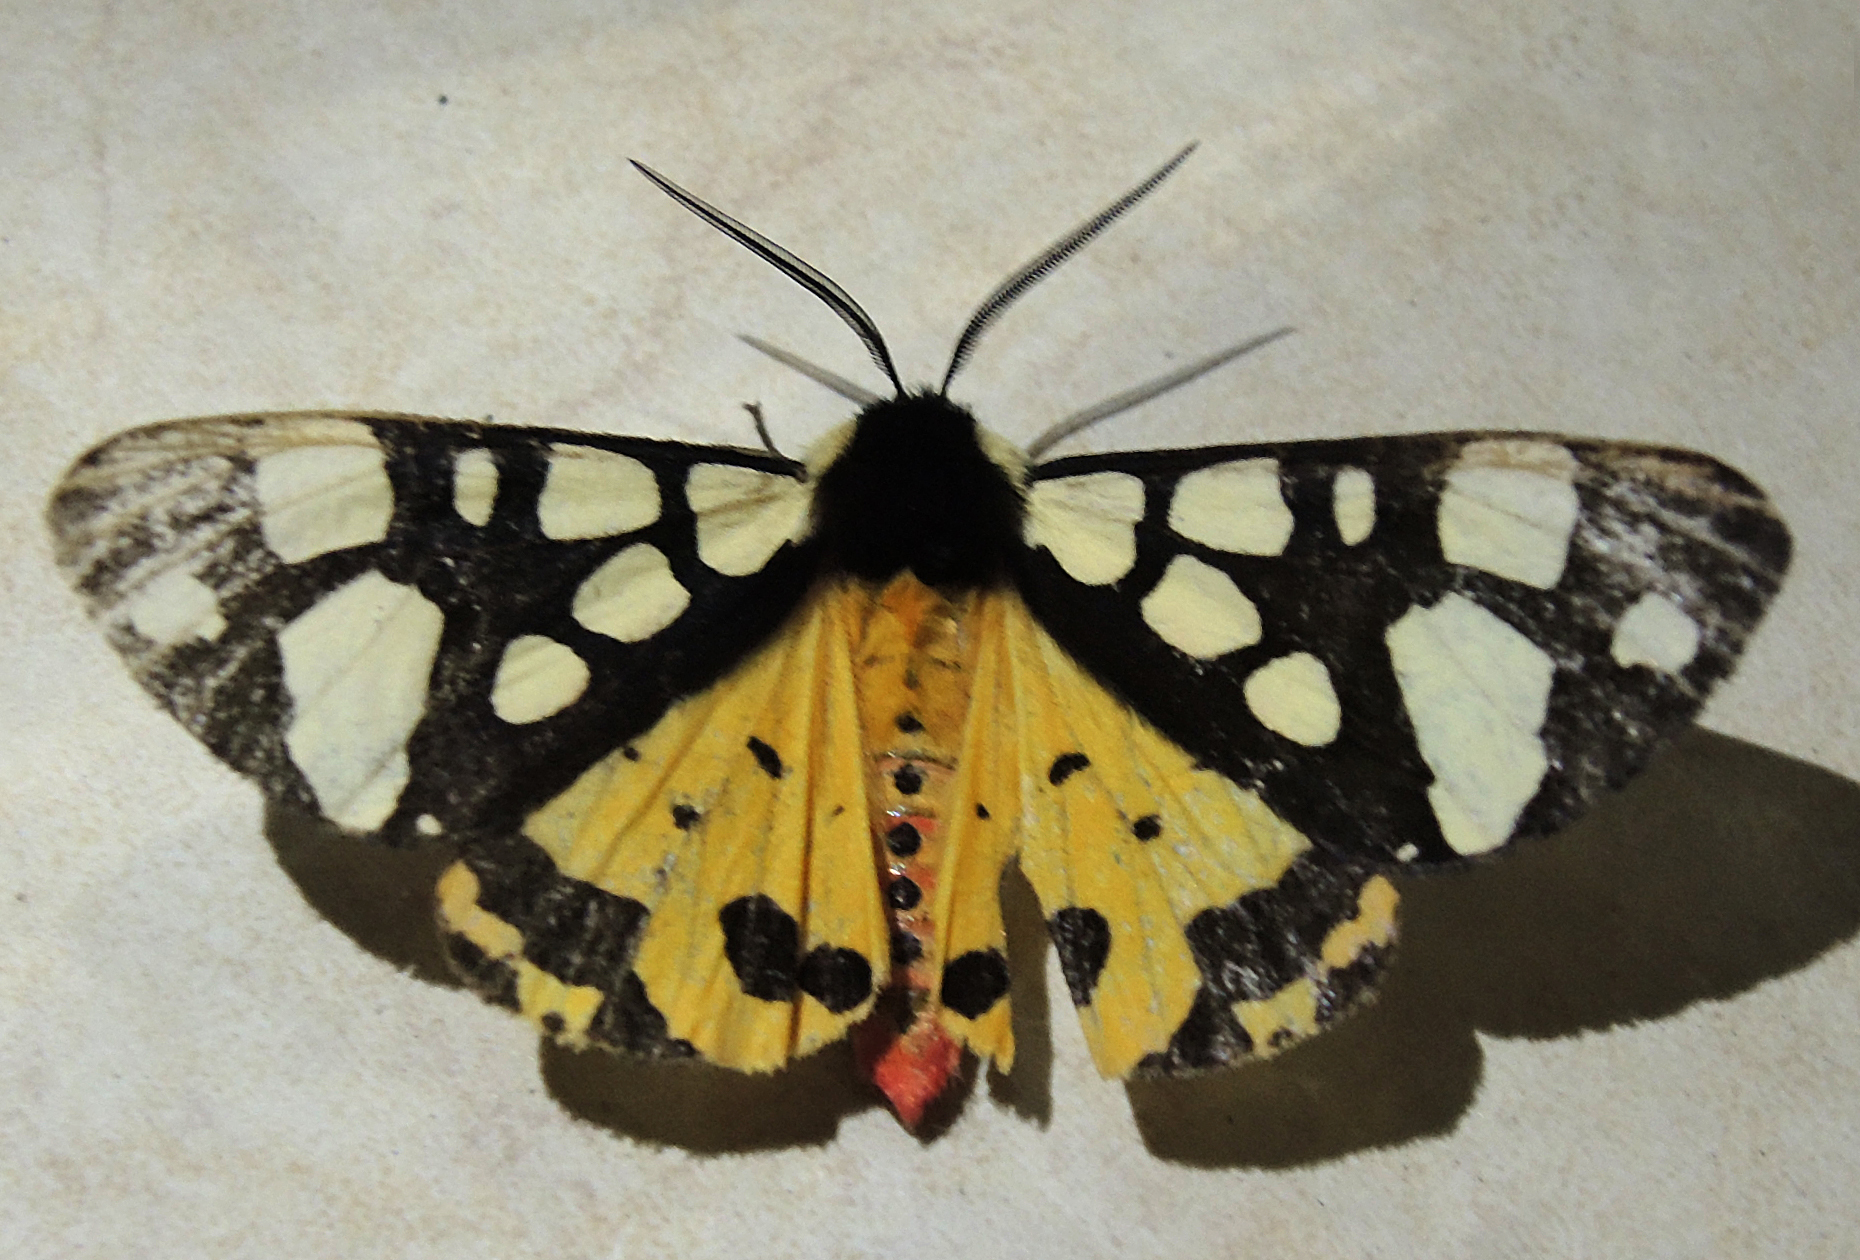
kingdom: Animalia
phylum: Arthropoda
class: Insecta
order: Lepidoptera
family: Erebidae
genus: Epicallia
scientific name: Epicallia villica
